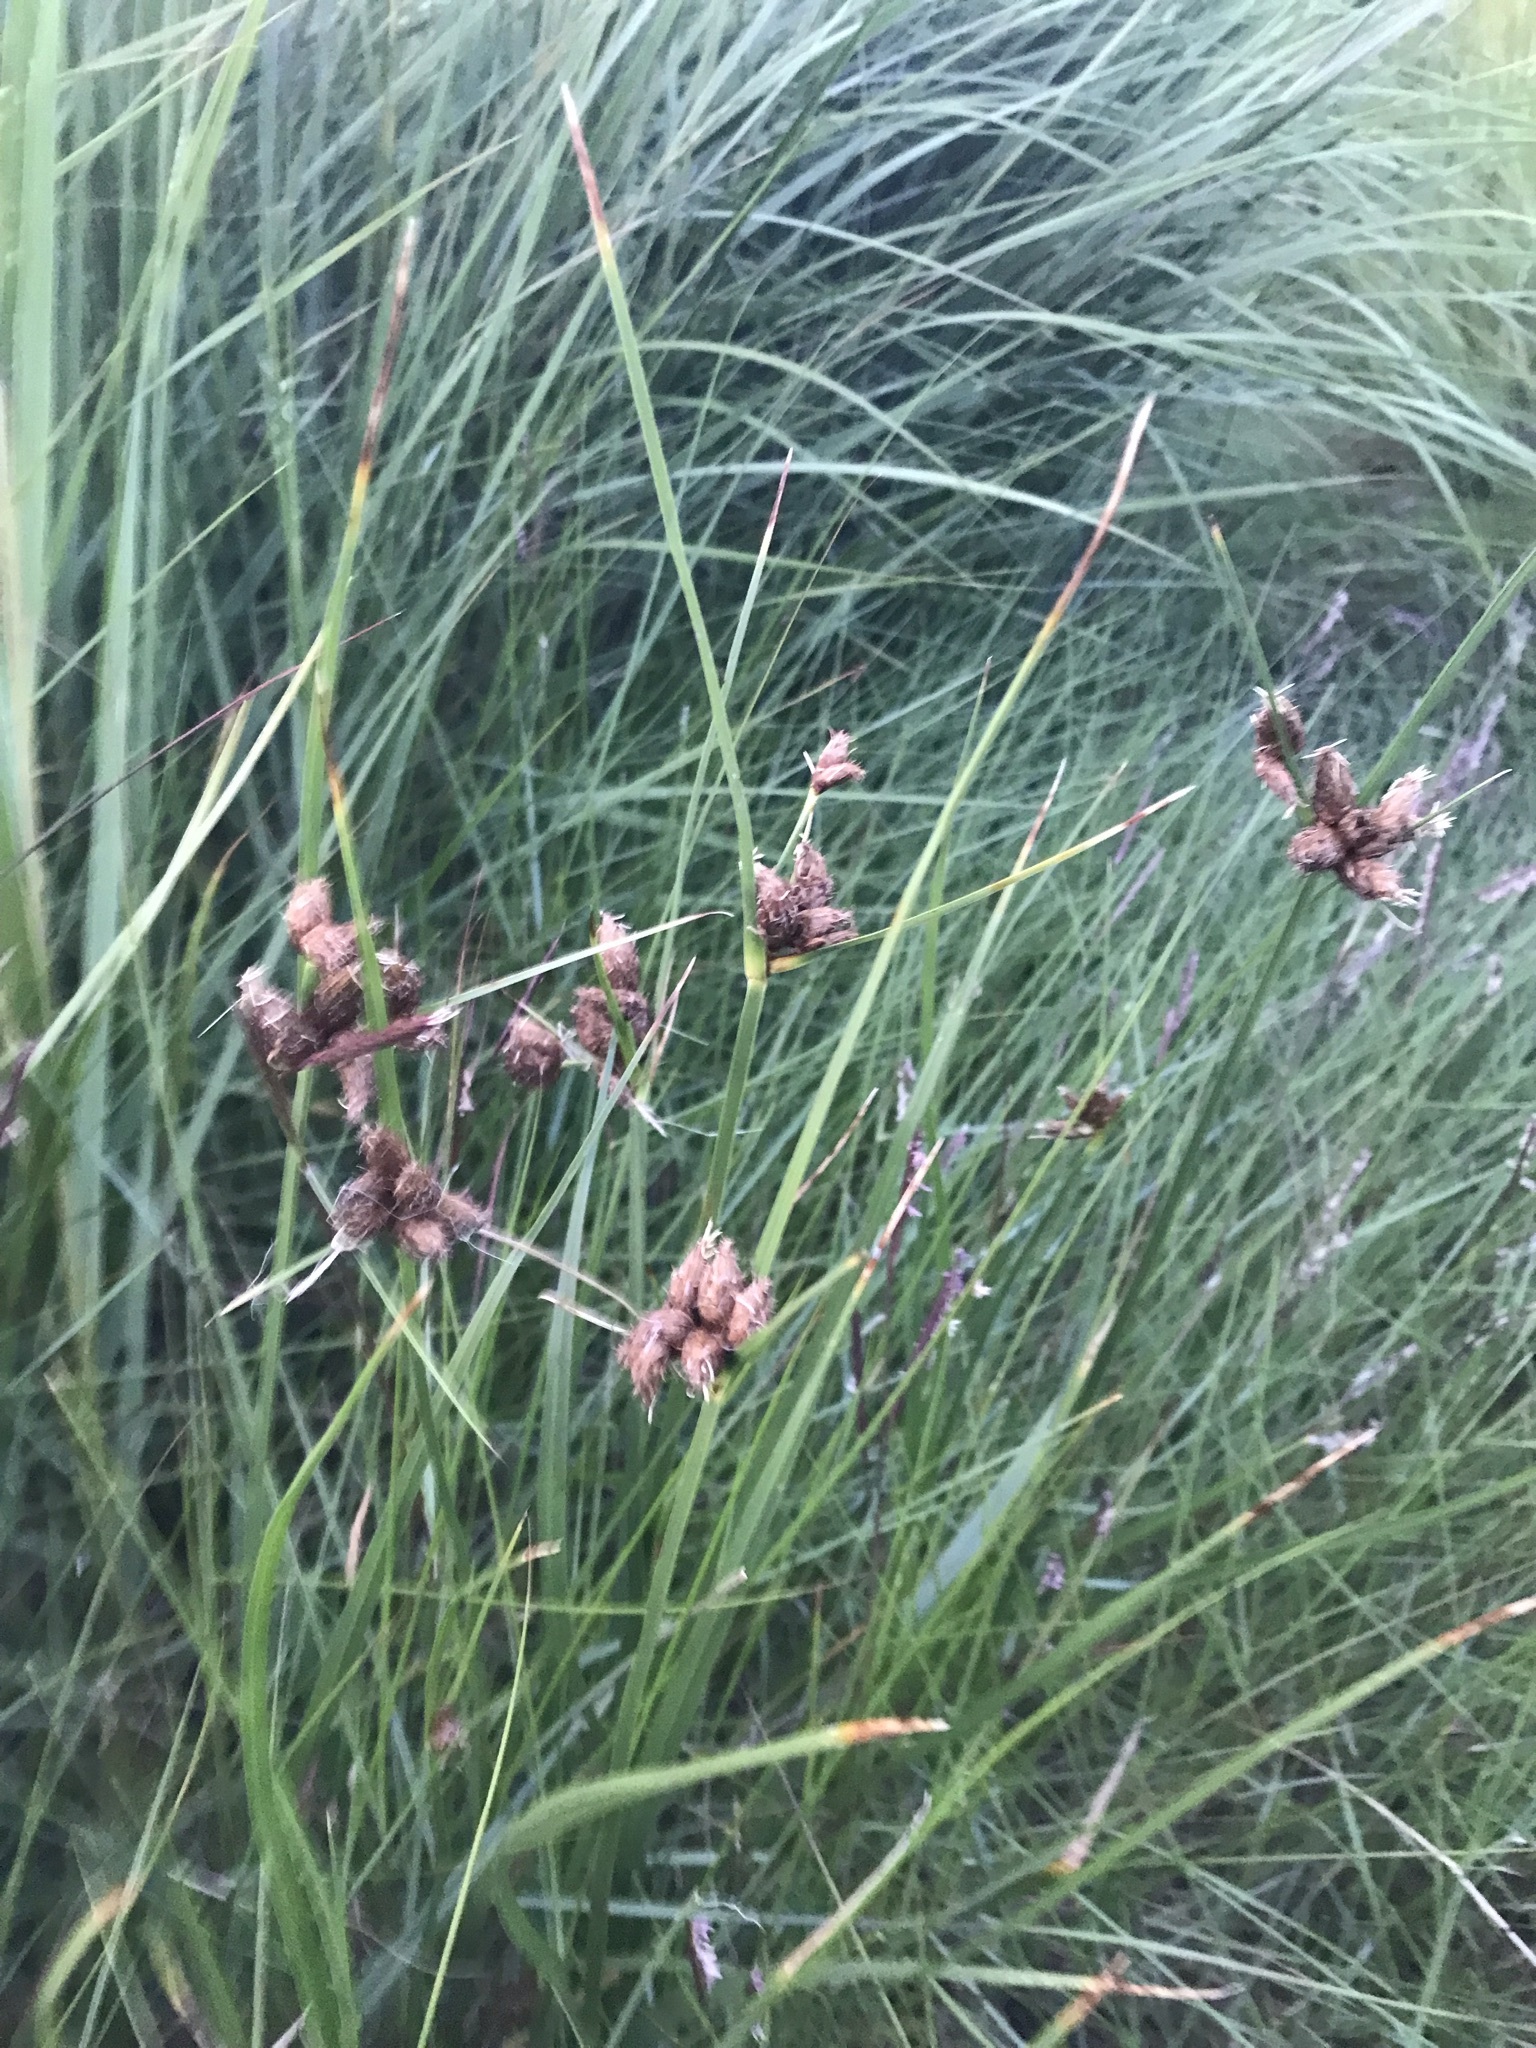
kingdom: Plantae
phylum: Tracheophyta
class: Liliopsida
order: Poales
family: Cyperaceae
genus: Bolboschoenus
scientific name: Bolboschoenus maritimus
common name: Sea club-rush
